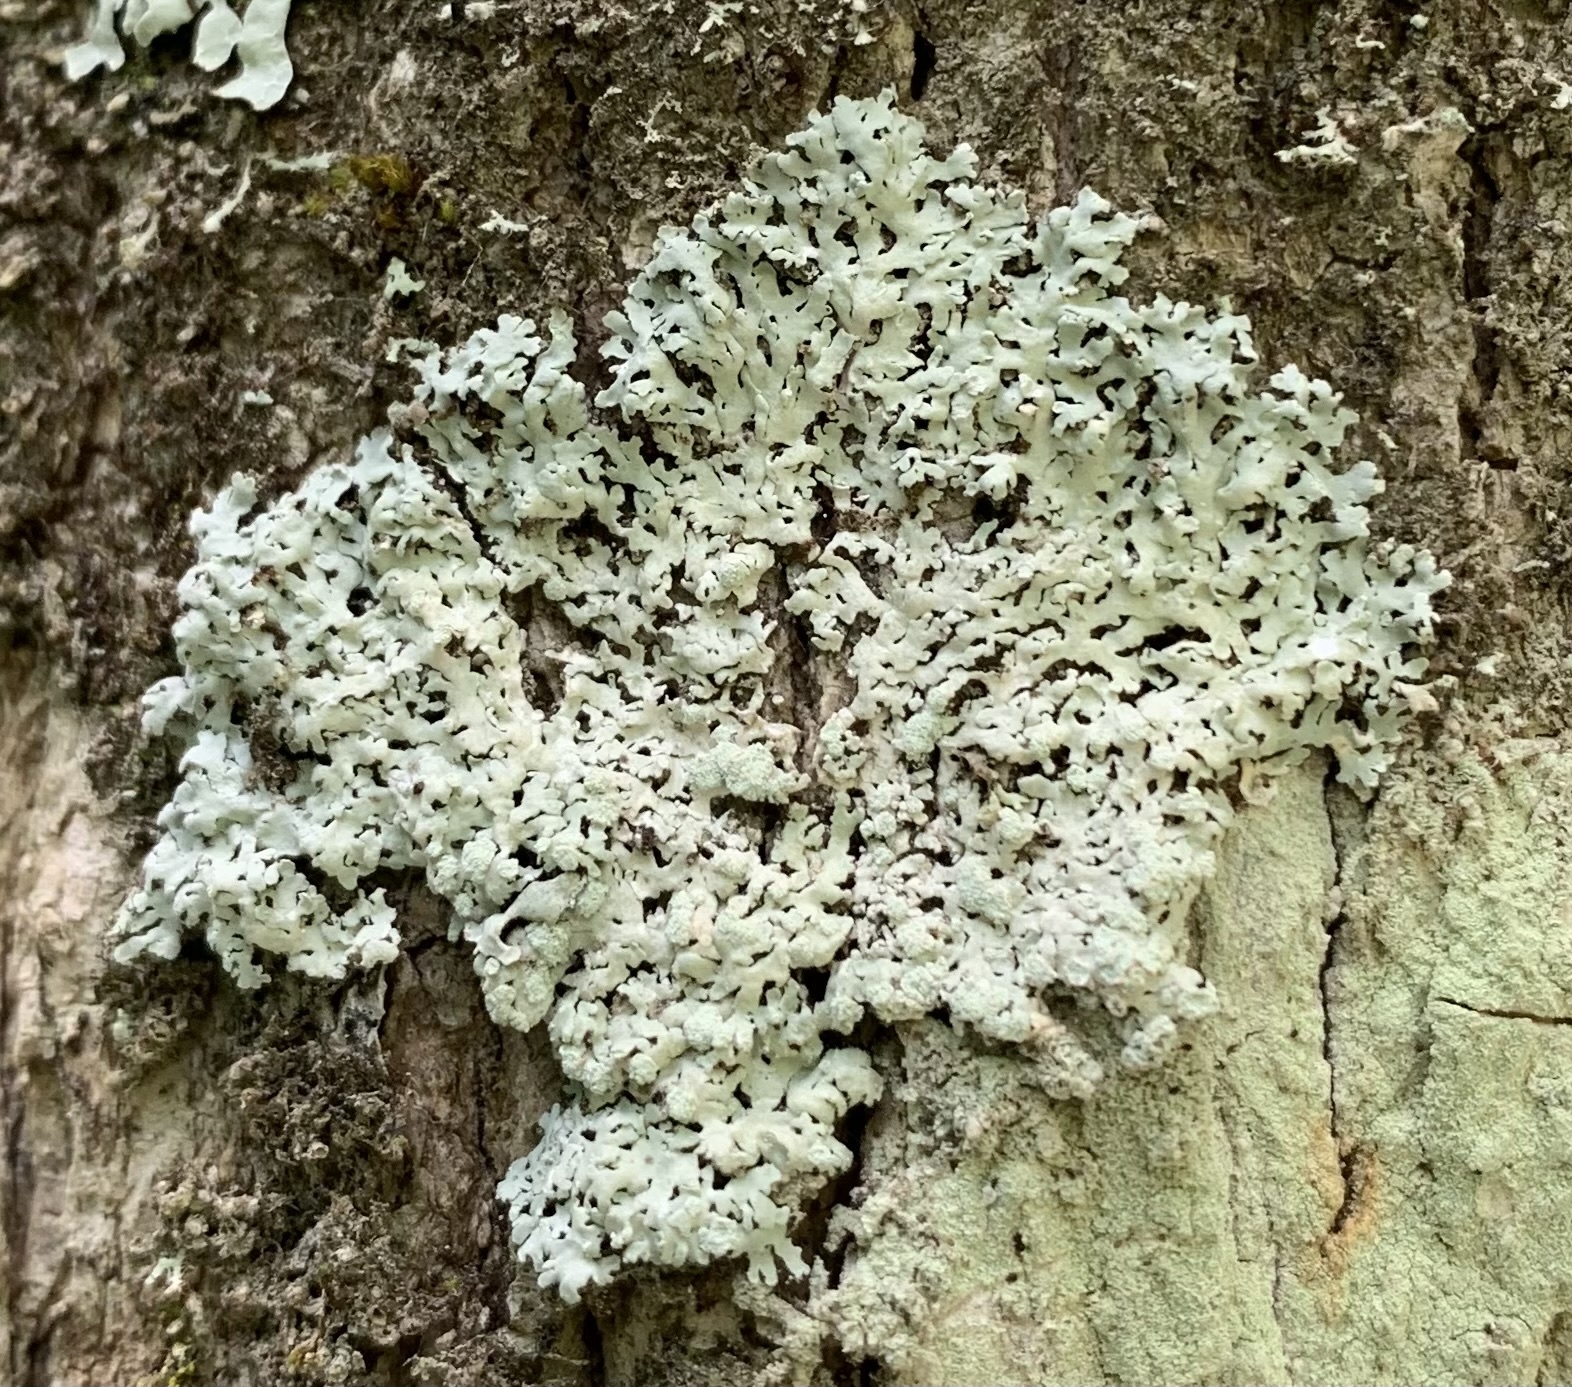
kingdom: Fungi
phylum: Ascomycota
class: Lecanoromycetes
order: Caliciales
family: Physciaceae
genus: Physcia
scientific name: Physcia americana
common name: American rosette lichen
